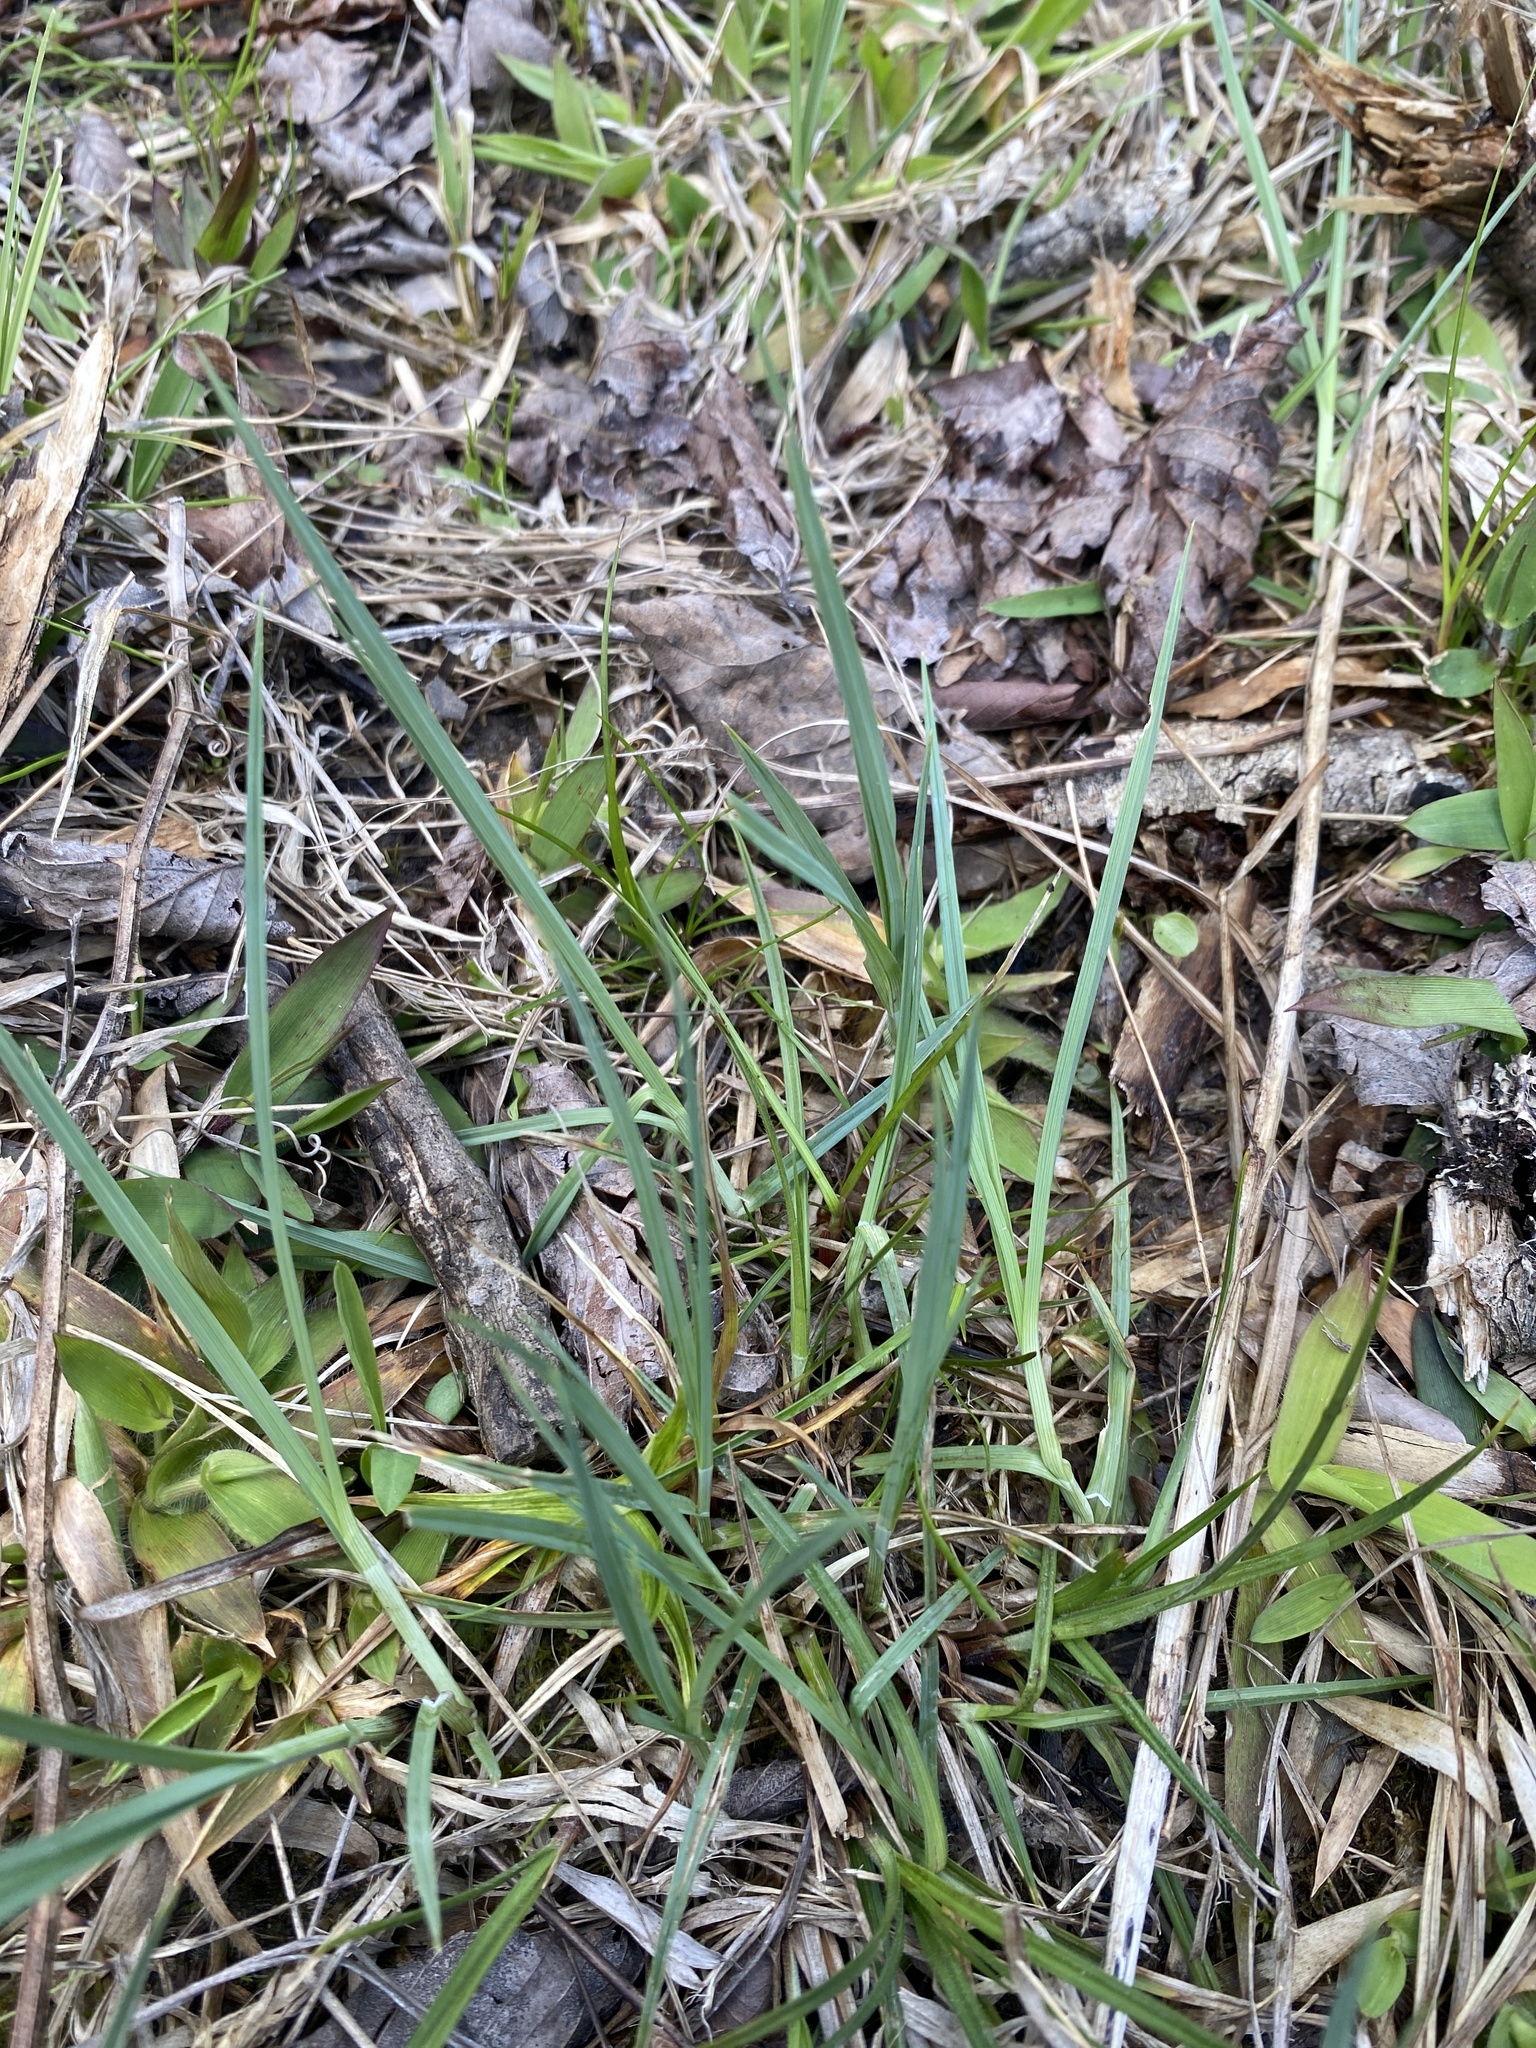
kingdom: Plantae
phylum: Tracheophyta
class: Liliopsida
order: Poales
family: Cyperaceae
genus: Carex
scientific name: Carex meadii
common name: Mead's sedge
